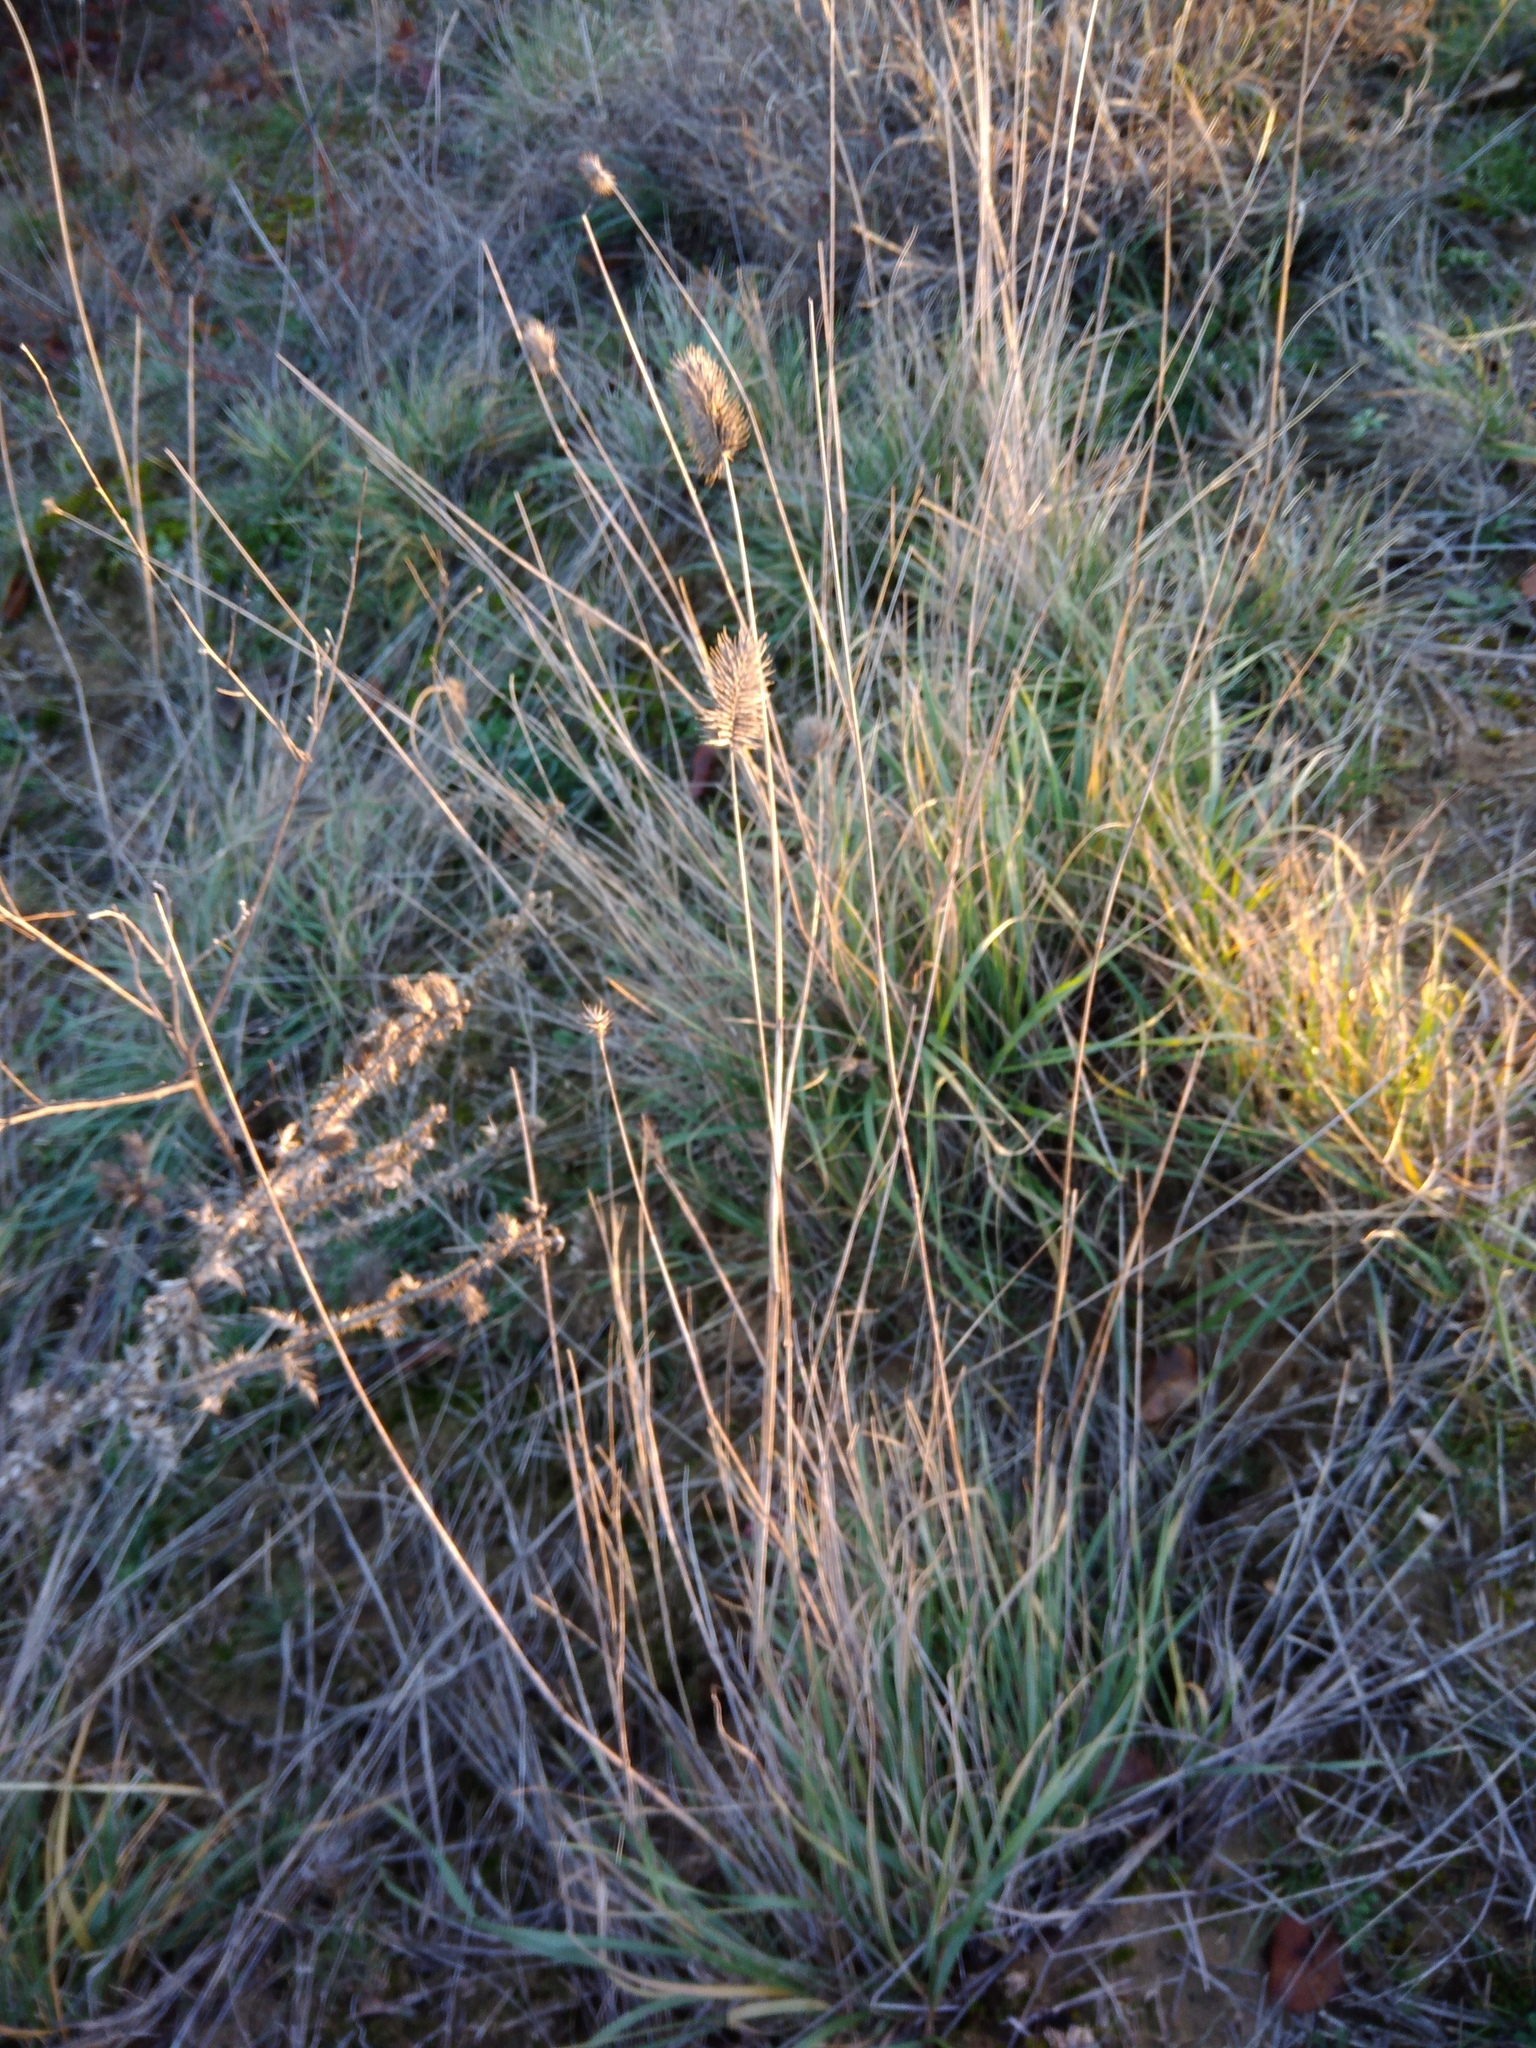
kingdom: Plantae
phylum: Tracheophyta
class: Liliopsida
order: Poales
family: Poaceae
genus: Agropyron
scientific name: Agropyron cristatum
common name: Crested wheatgrass
